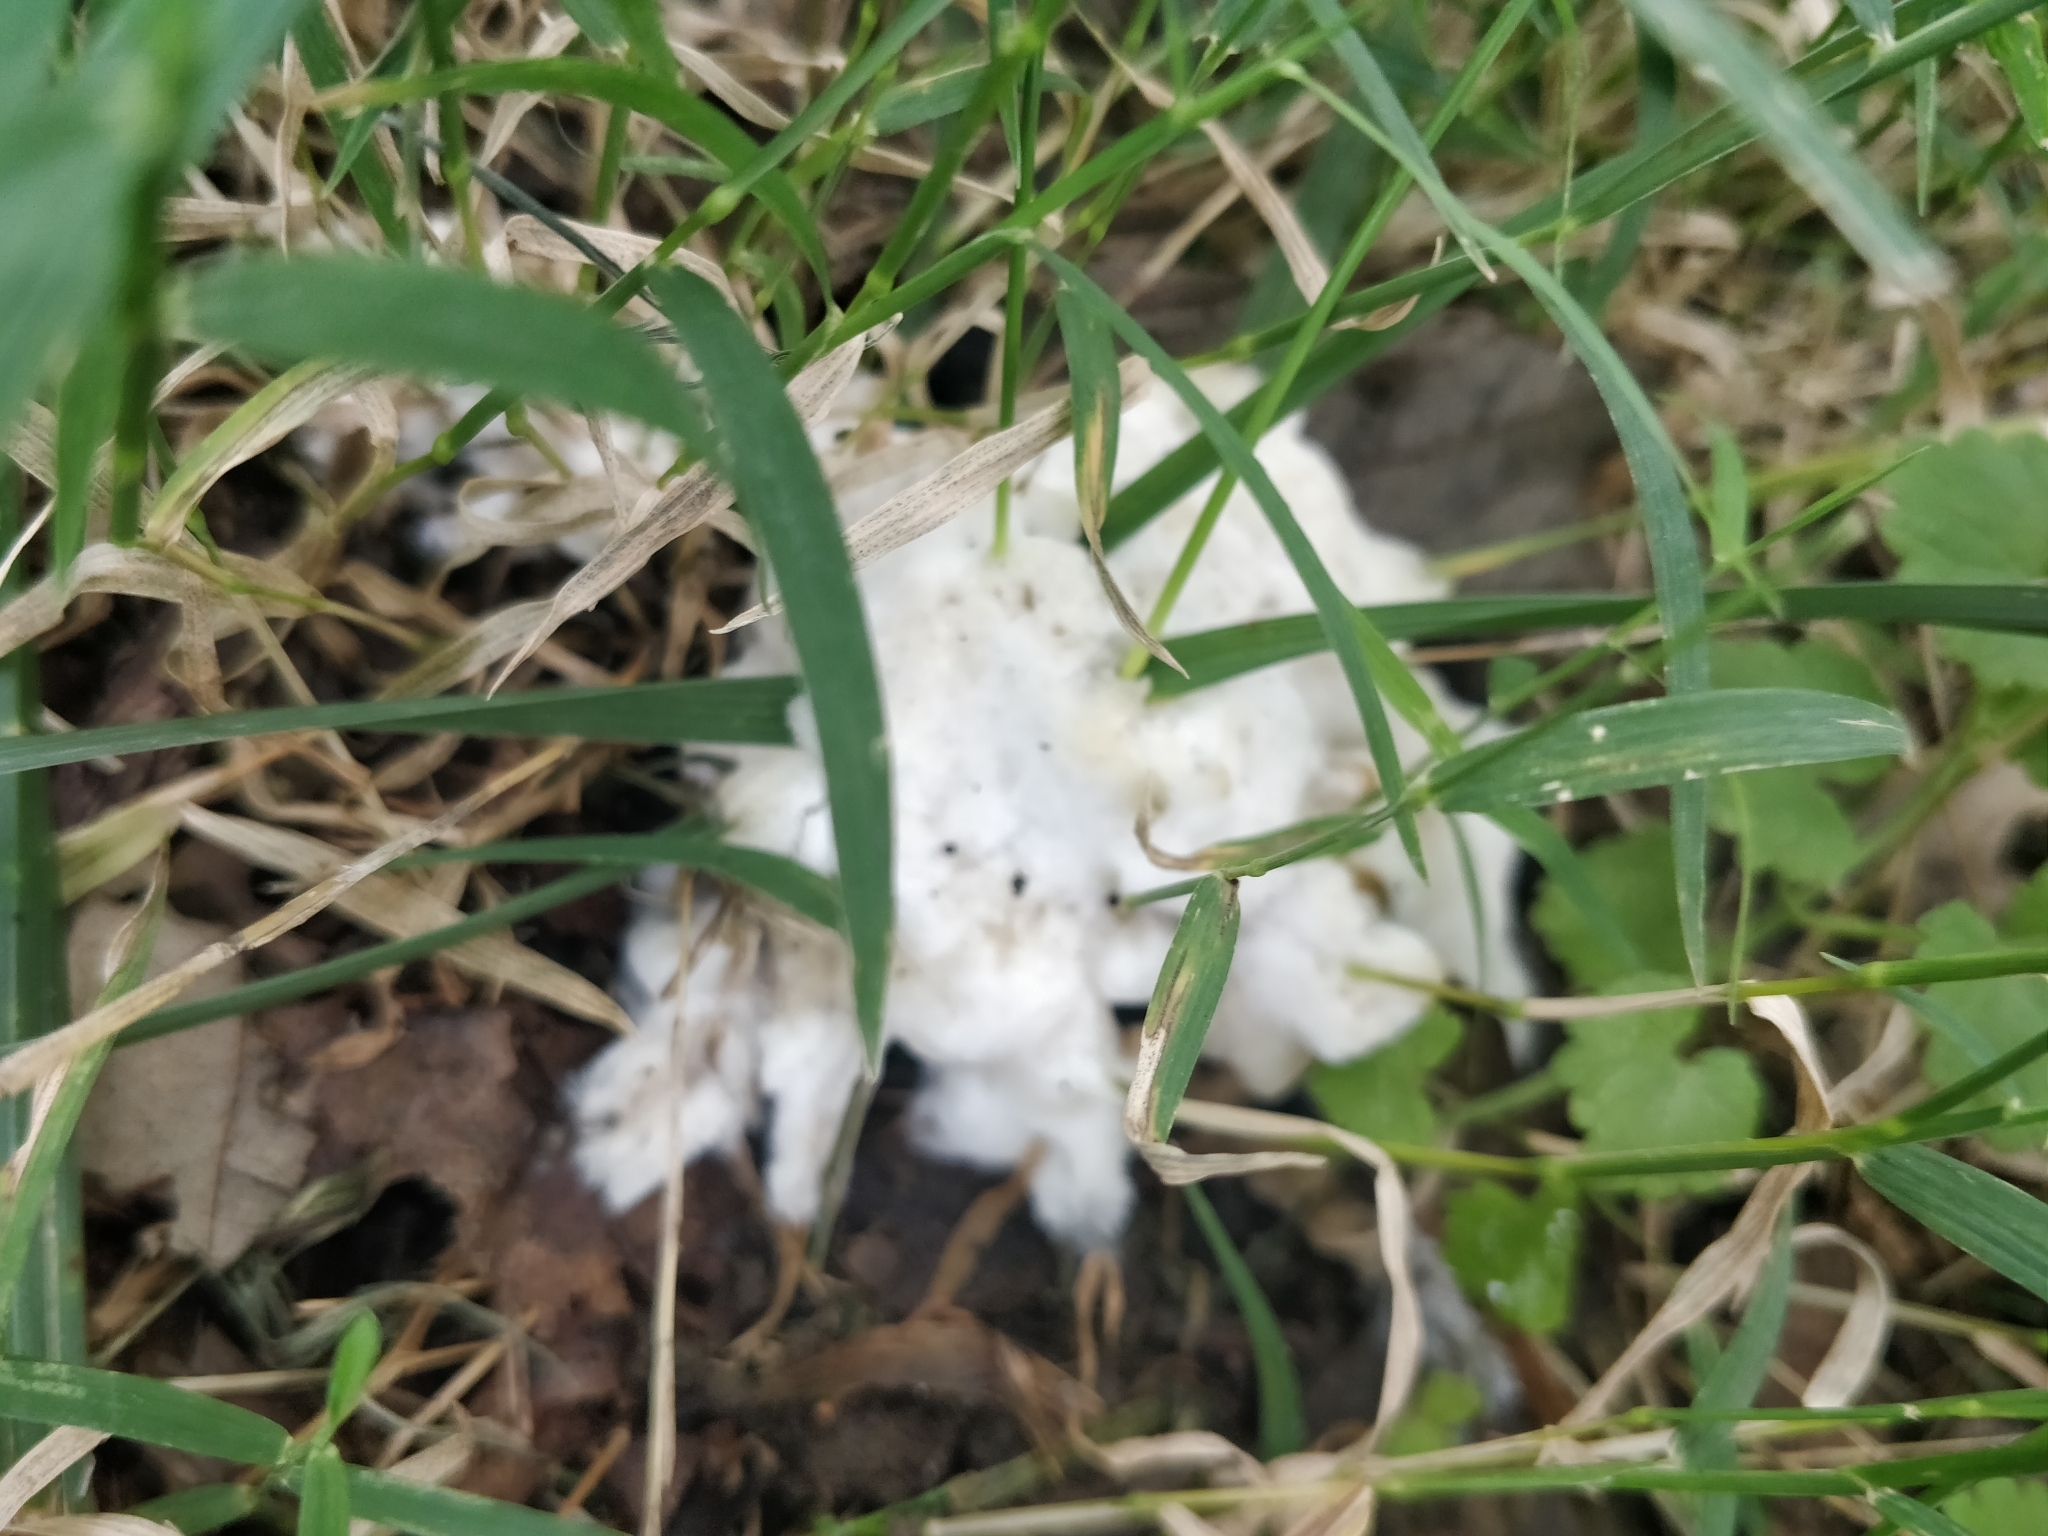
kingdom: Fungi
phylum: Basidiomycota
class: Agaricomycetes
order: Sebacinales
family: Sebacinaceae
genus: Sebacina
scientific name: Sebacina incrustans
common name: Enveloping crust
